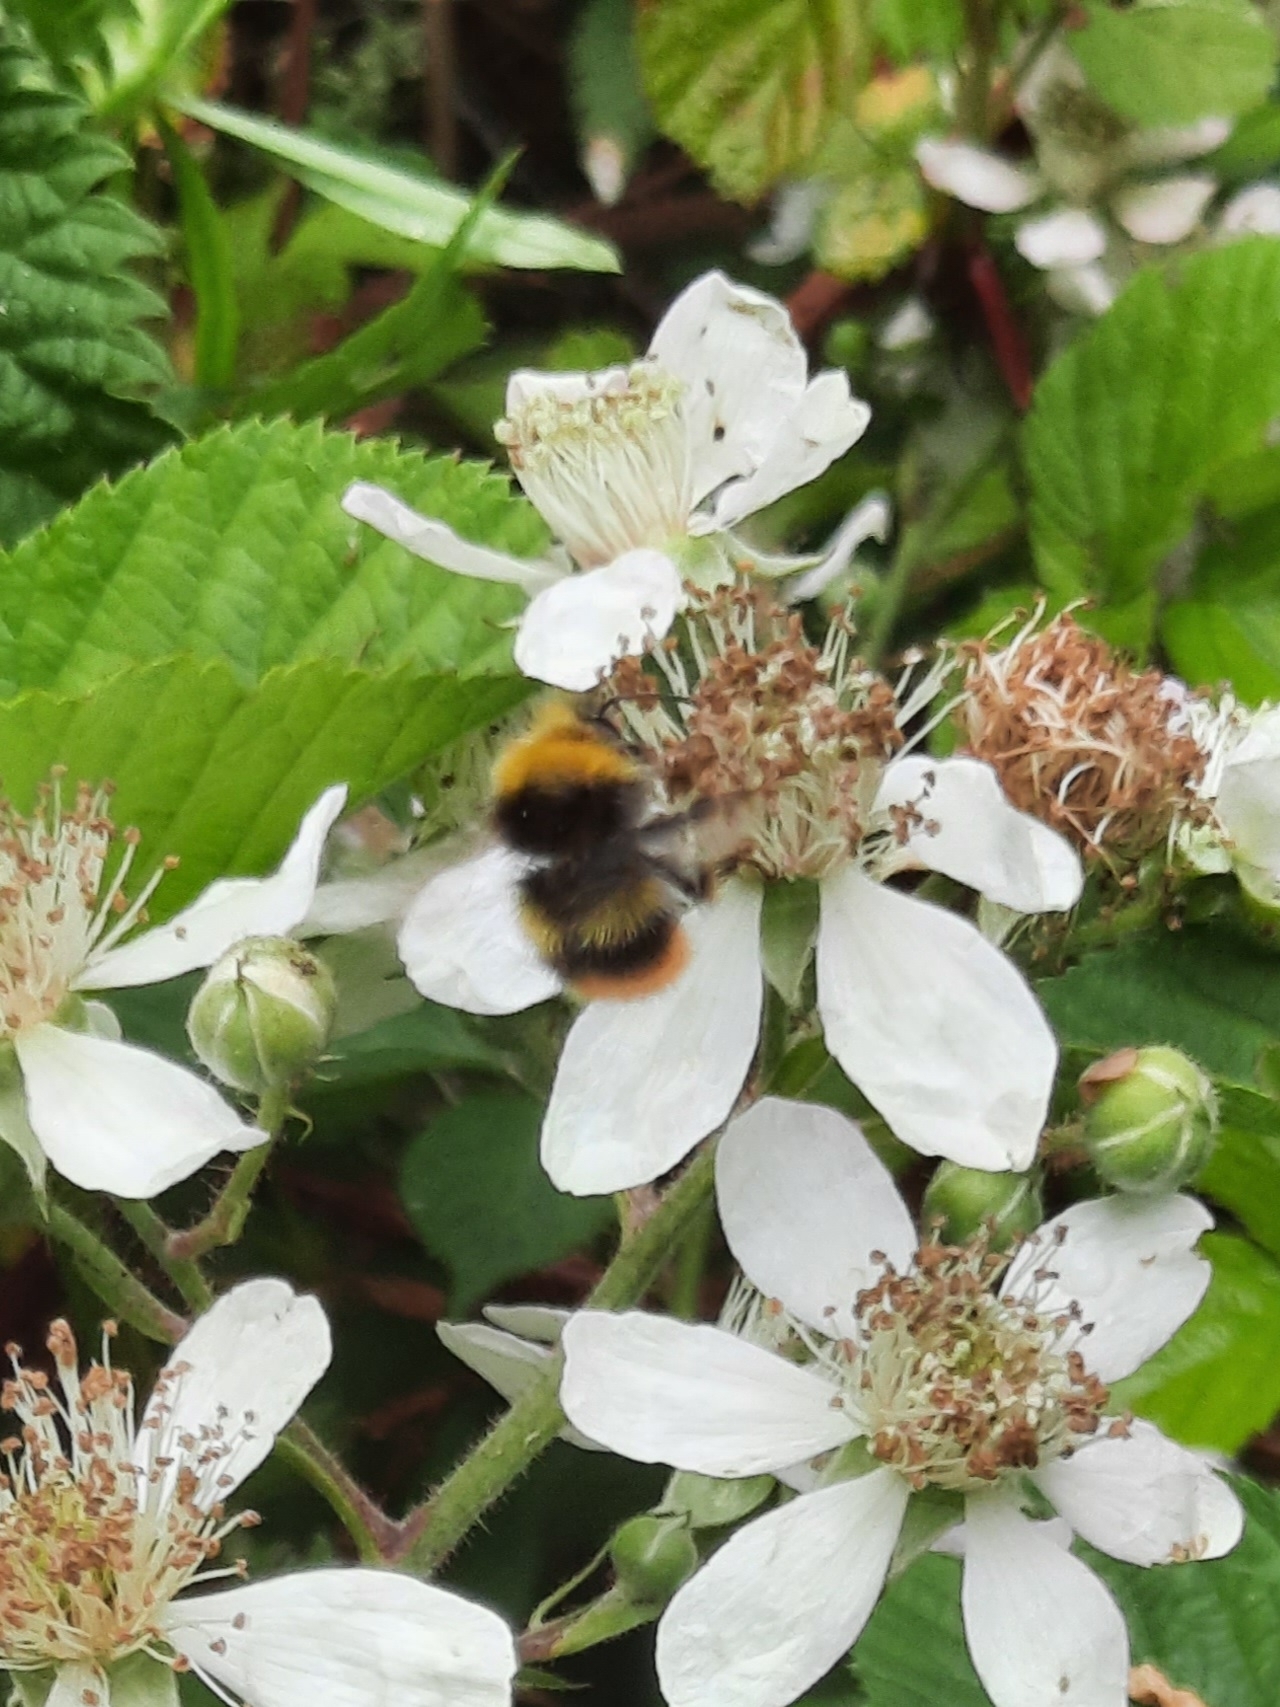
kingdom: Animalia
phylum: Arthropoda
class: Insecta
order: Hymenoptera
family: Apidae
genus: Bombus
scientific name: Bombus pratorum
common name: Early humble-bee
